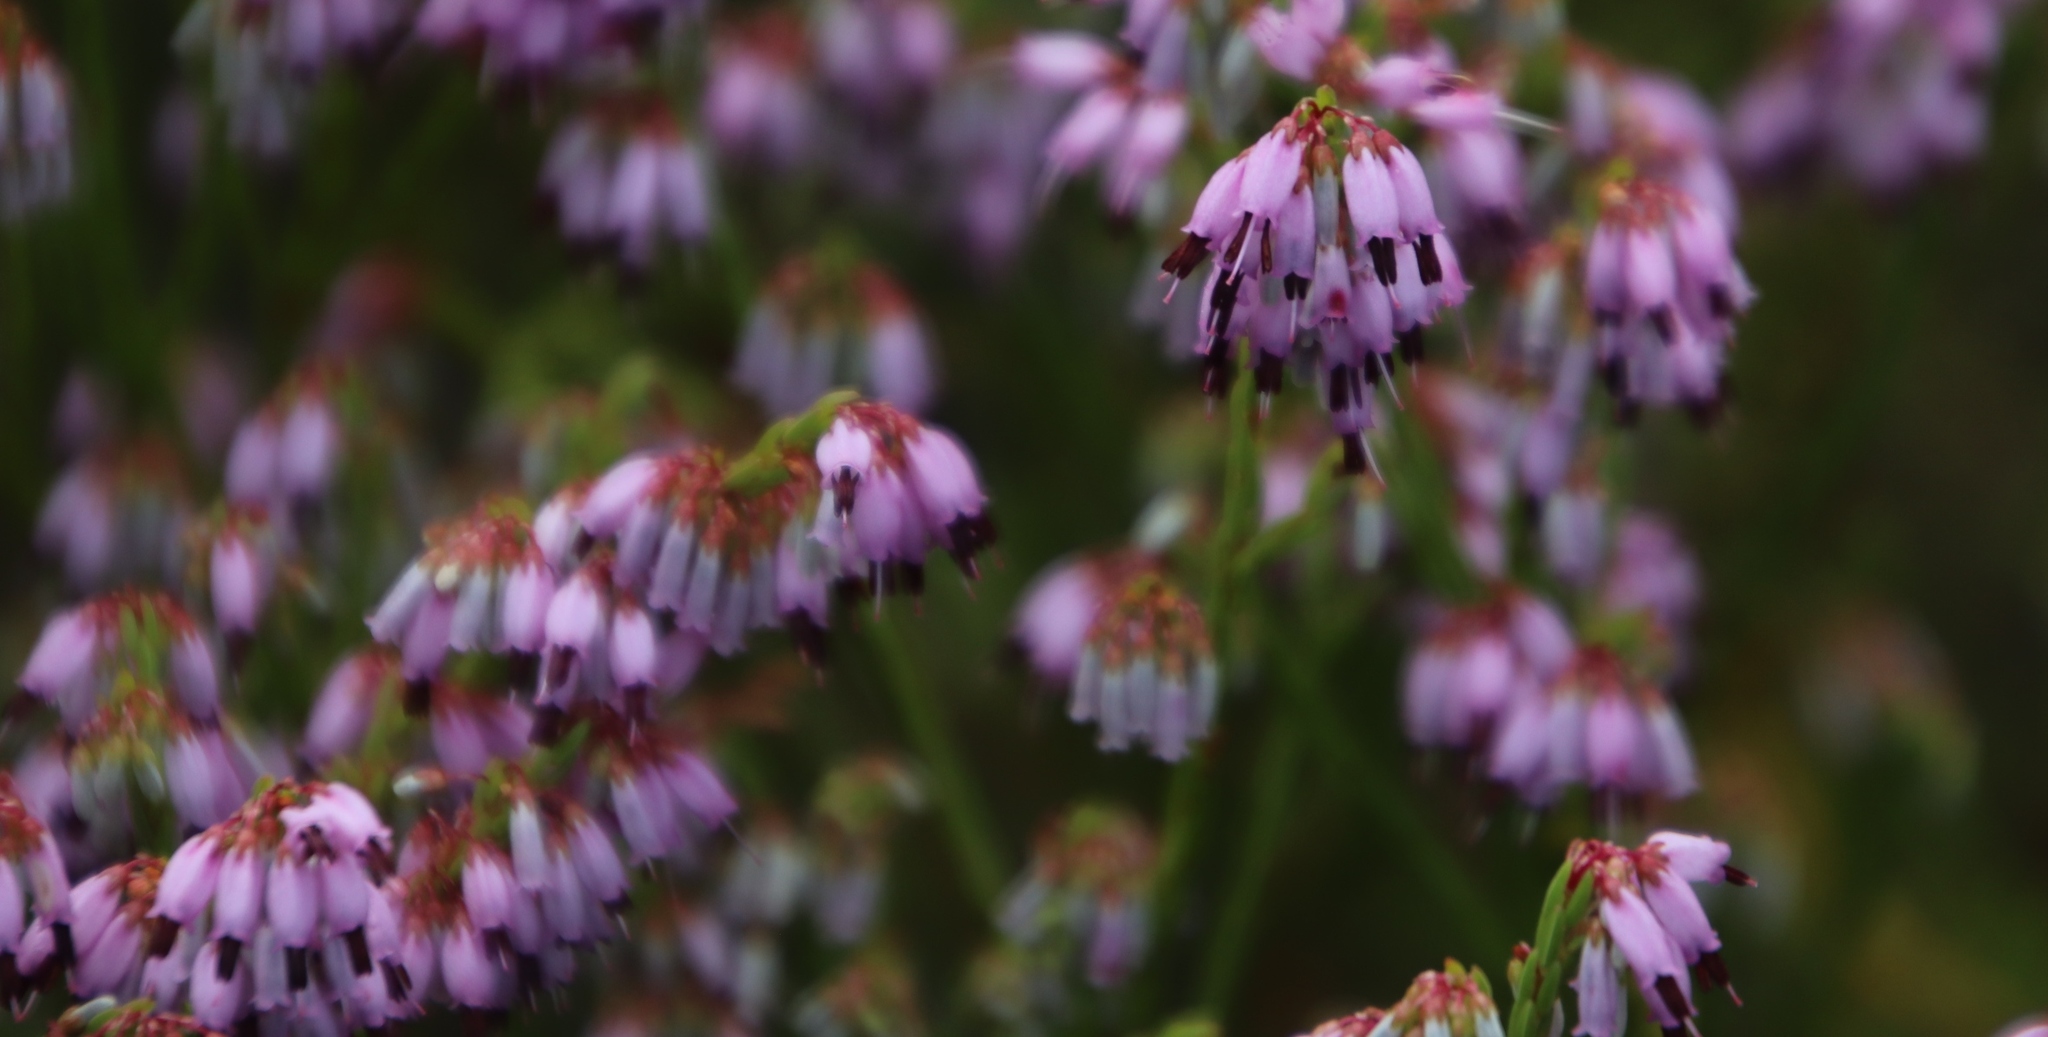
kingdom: Plantae
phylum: Tracheophyta
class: Magnoliopsida
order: Ericales
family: Ericaceae
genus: Erica
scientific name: Erica equisetifolia
